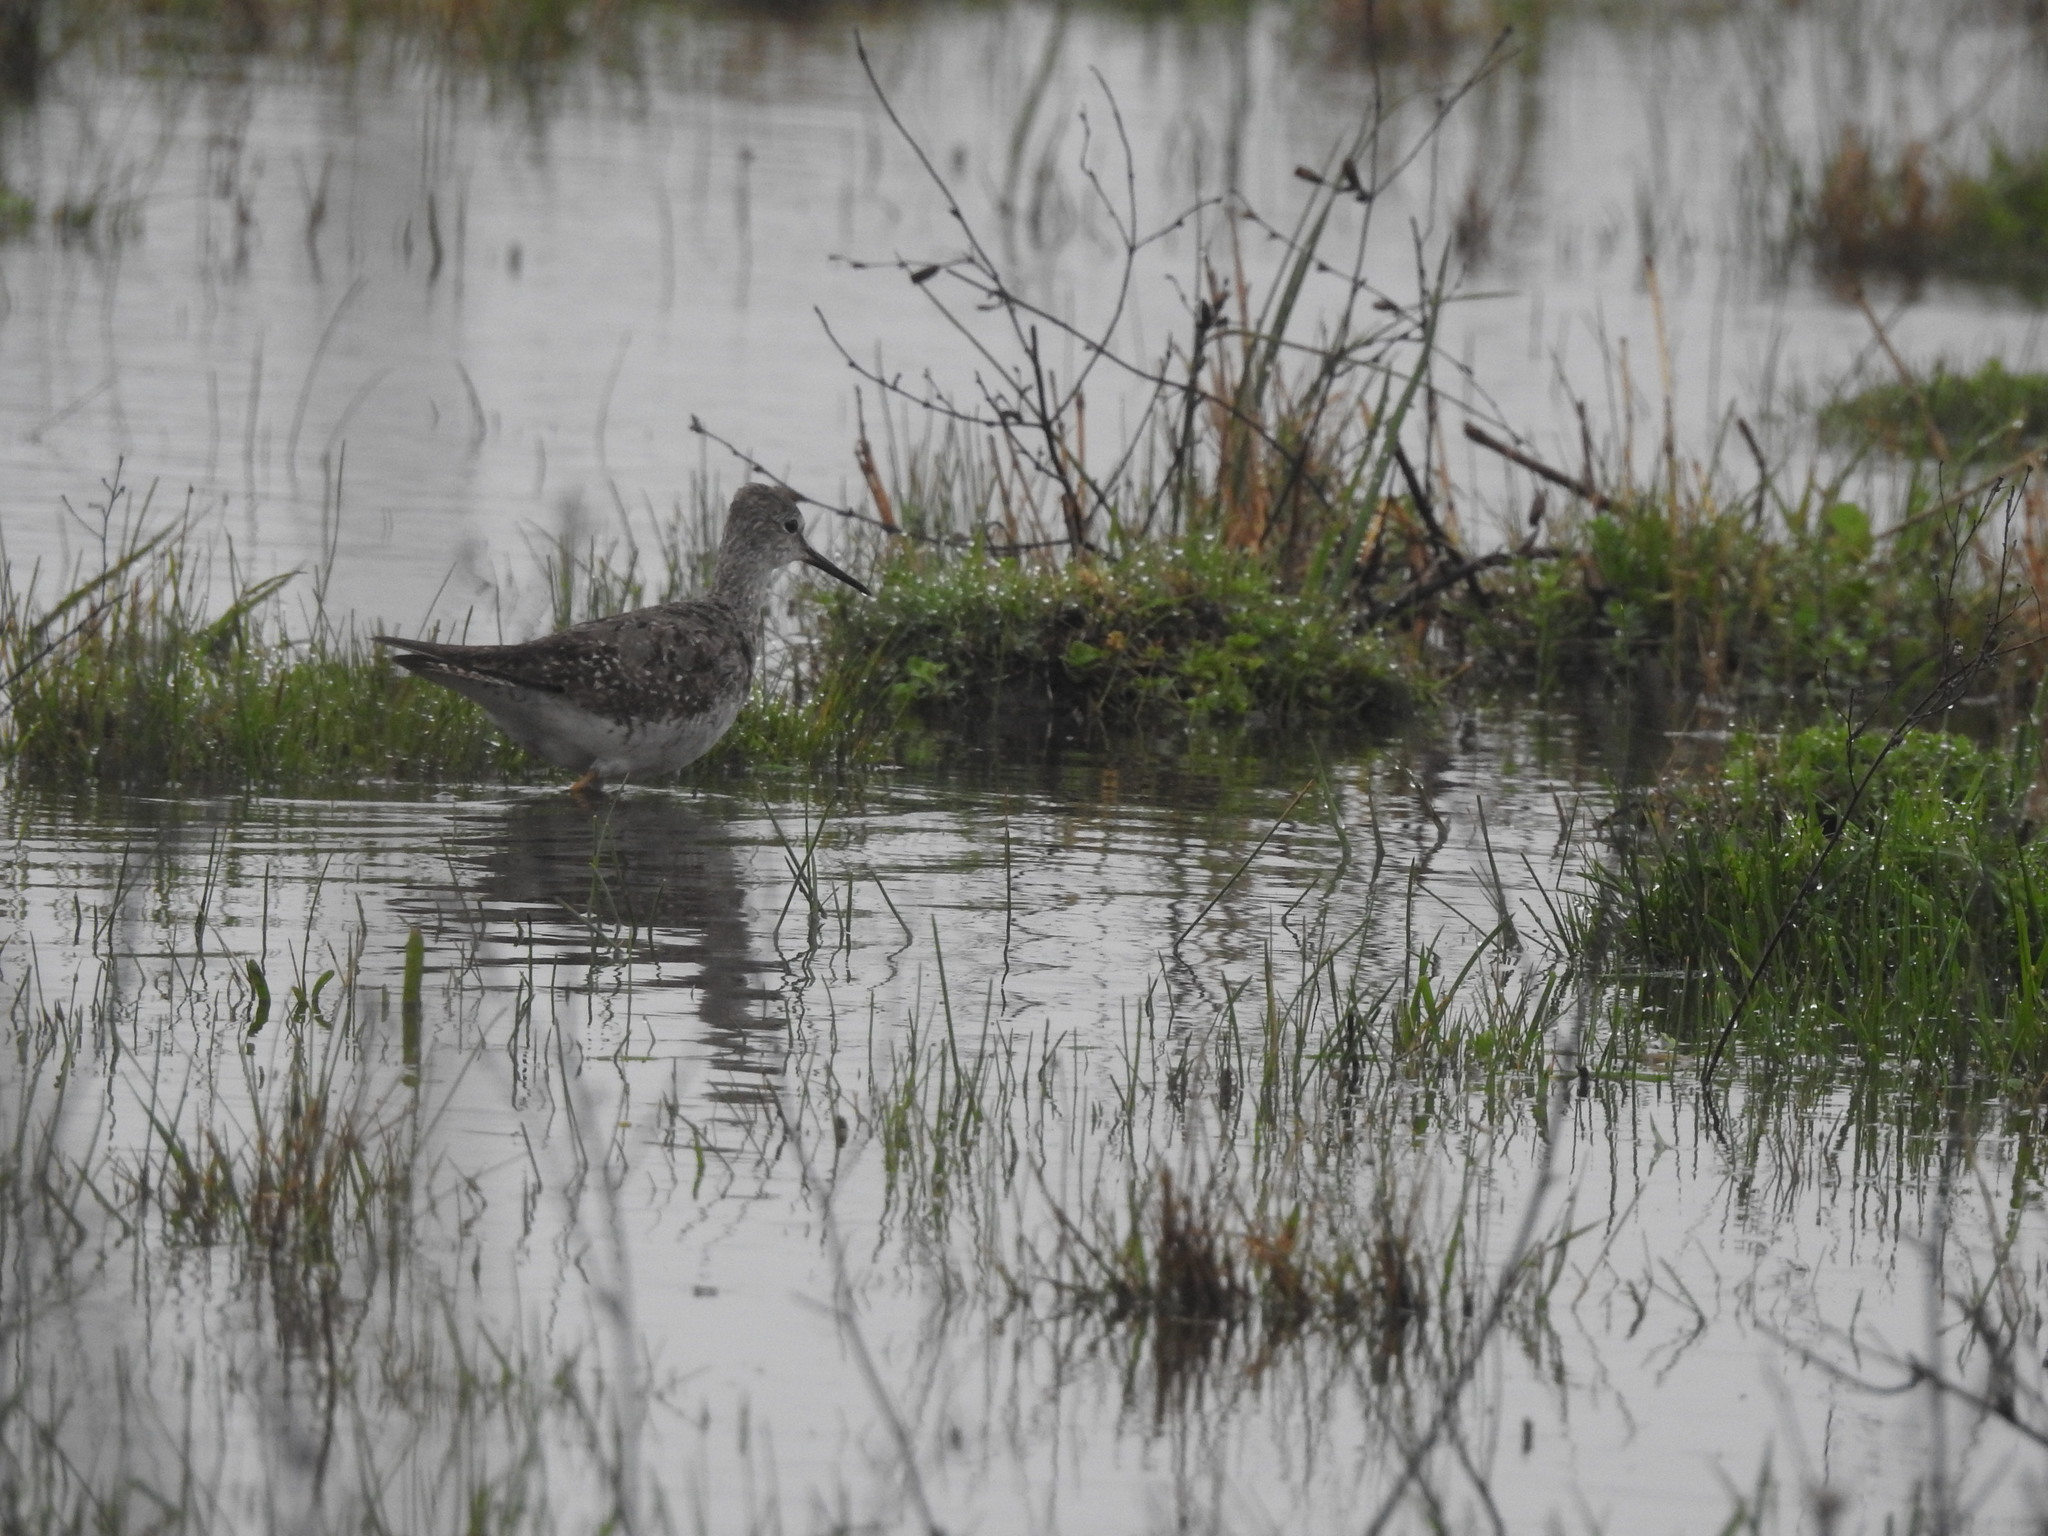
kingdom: Animalia
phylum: Chordata
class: Aves
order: Charadriiformes
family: Scolopacidae
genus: Tringa
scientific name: Tringa flavipes
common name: Lesser yellowlegs
